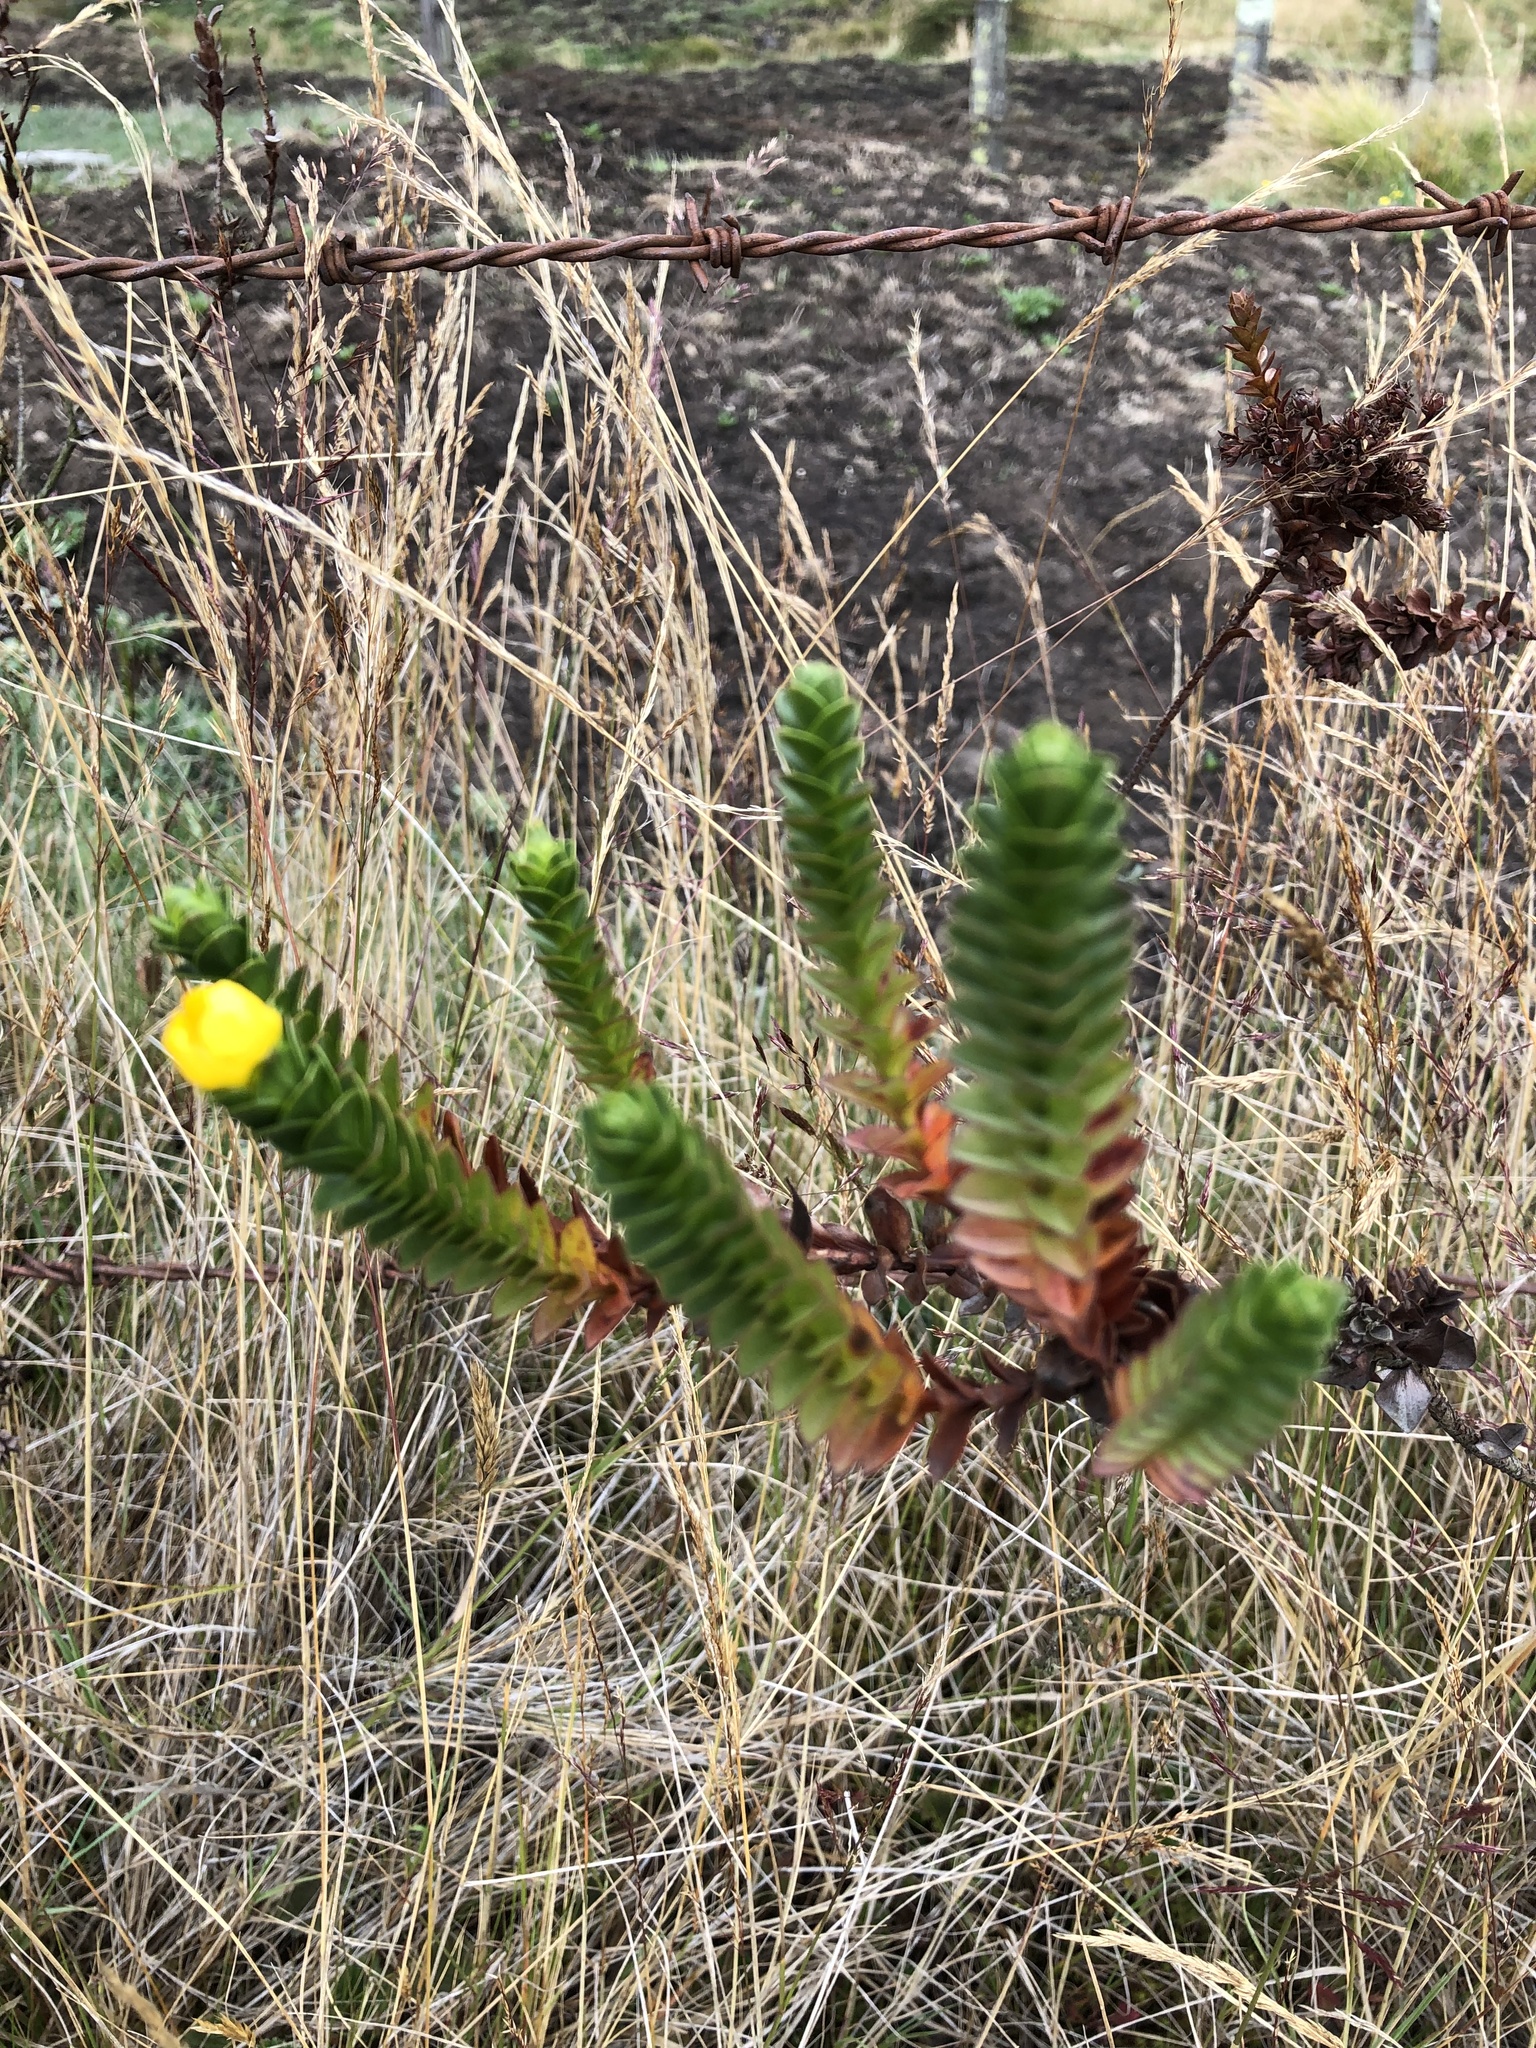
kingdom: Plantae
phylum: Tracheophyta
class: Magnoliopsida
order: Malpighiales
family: Hypericaceae
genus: Hypericum
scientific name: Hypericum mexicanum
